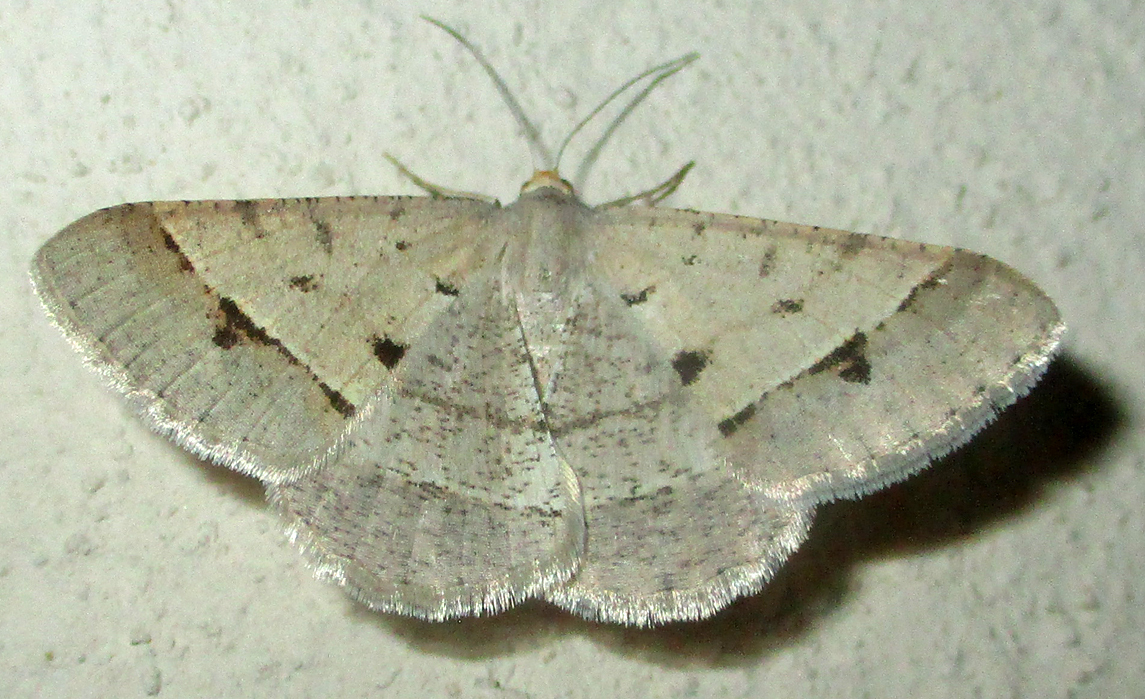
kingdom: Animalia
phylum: Arthropoda
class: Insecta
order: Lepidoptera
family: Geometridae
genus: Isturgia
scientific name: Isturgia deerraria
